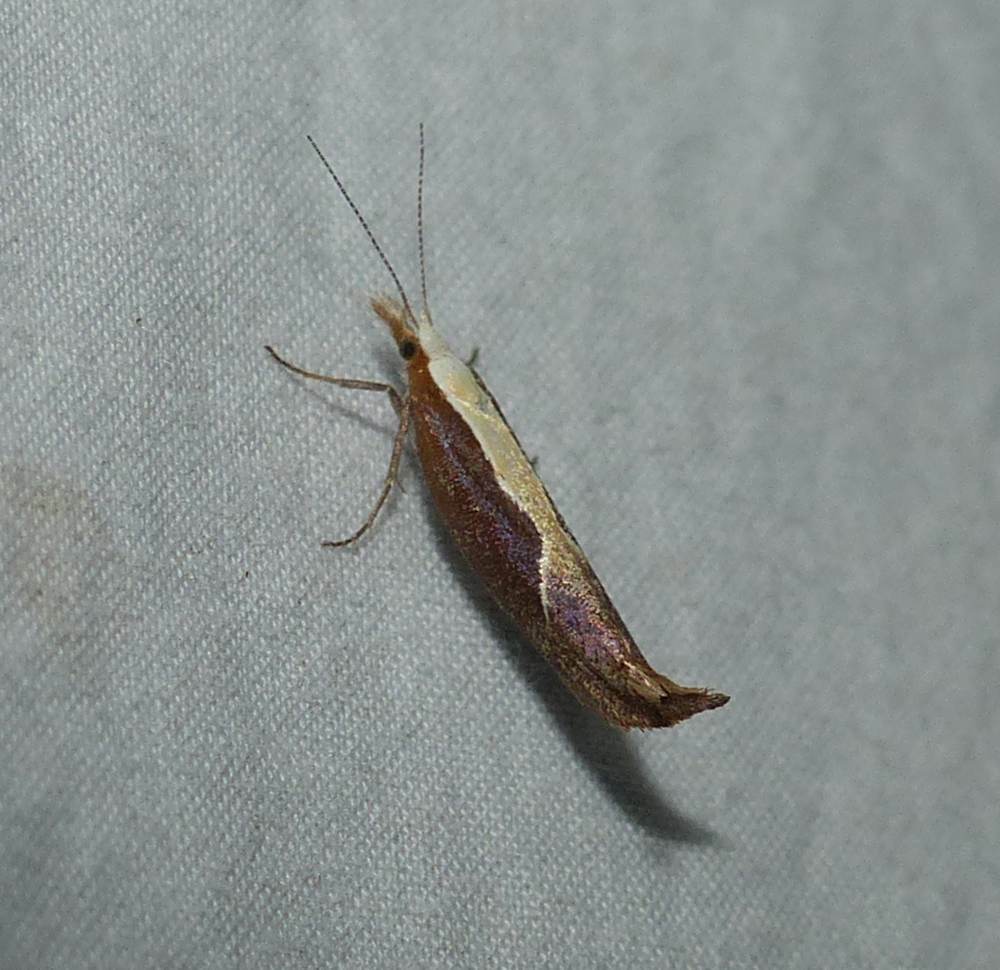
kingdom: Animalia
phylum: Arthropoda
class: Insecta
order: Lepidoptera
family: Ypsolophidae
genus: Ypsolopha
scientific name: Ypsolopha dentella
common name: Honeysuckle moth
